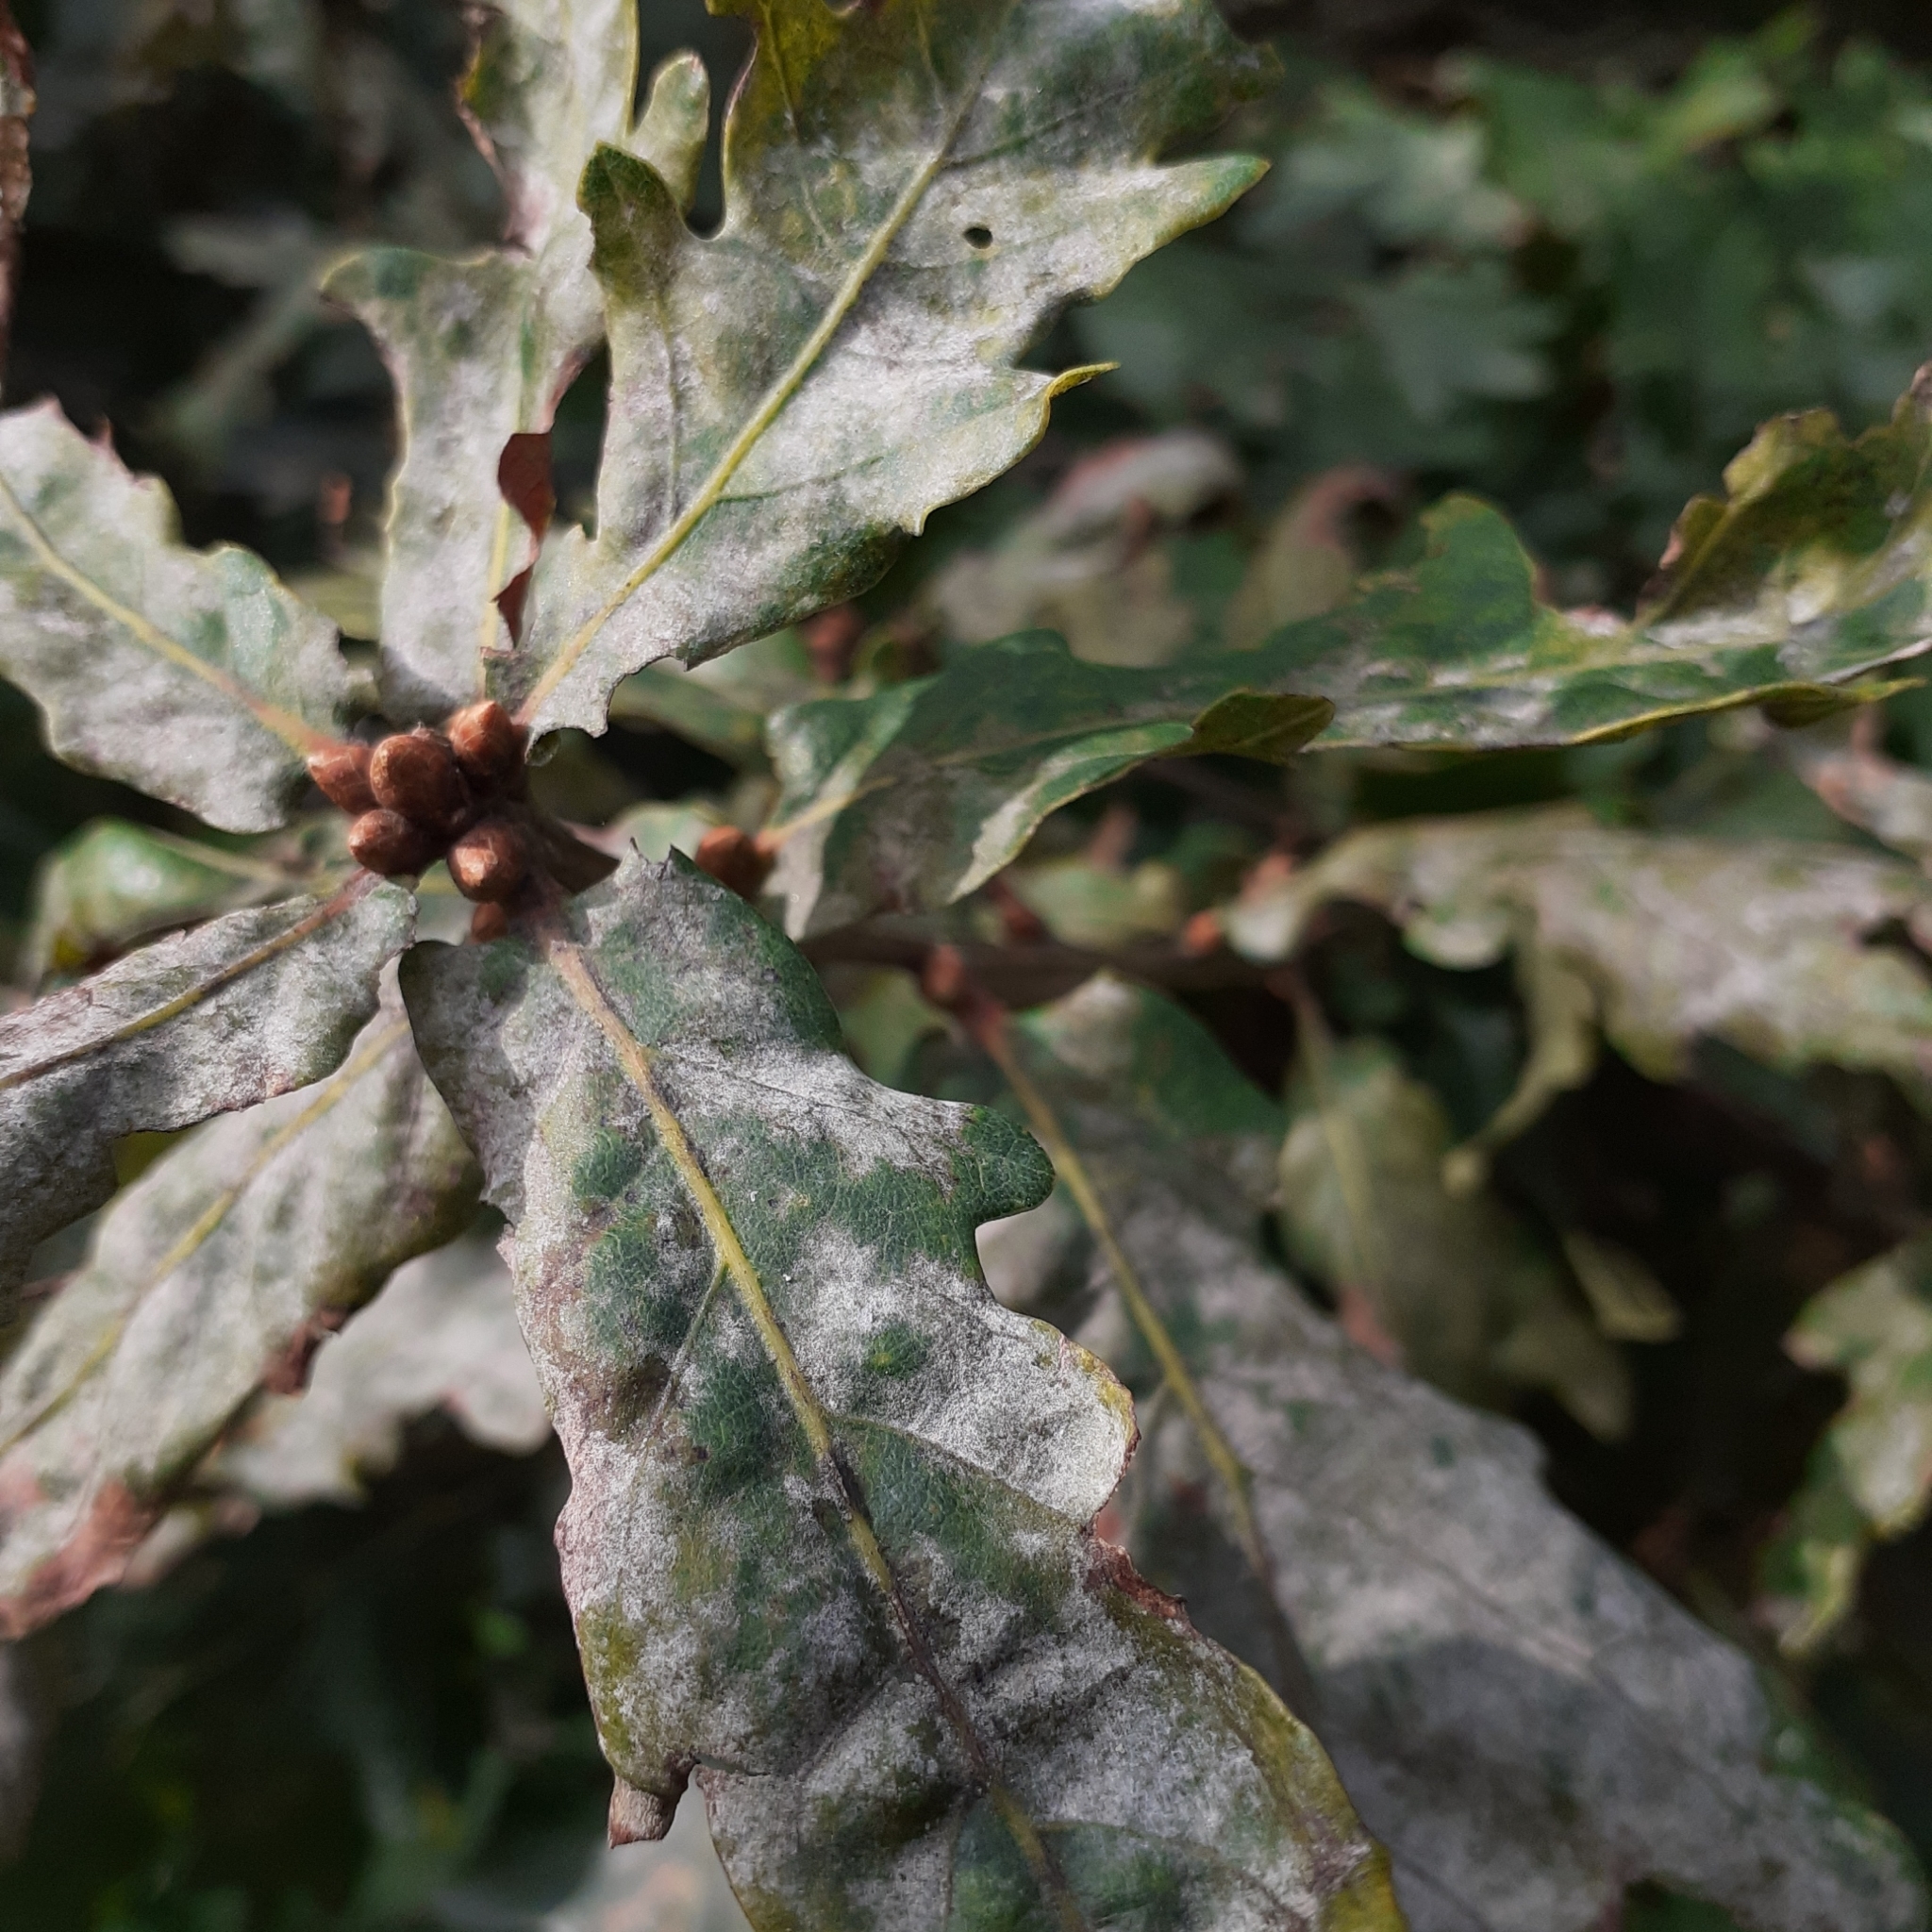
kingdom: Fungi
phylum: Ascomycota
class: Leotiomycetes
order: Helotiales
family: Erysiphaceae
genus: Erysiphe
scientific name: Erysiphe
